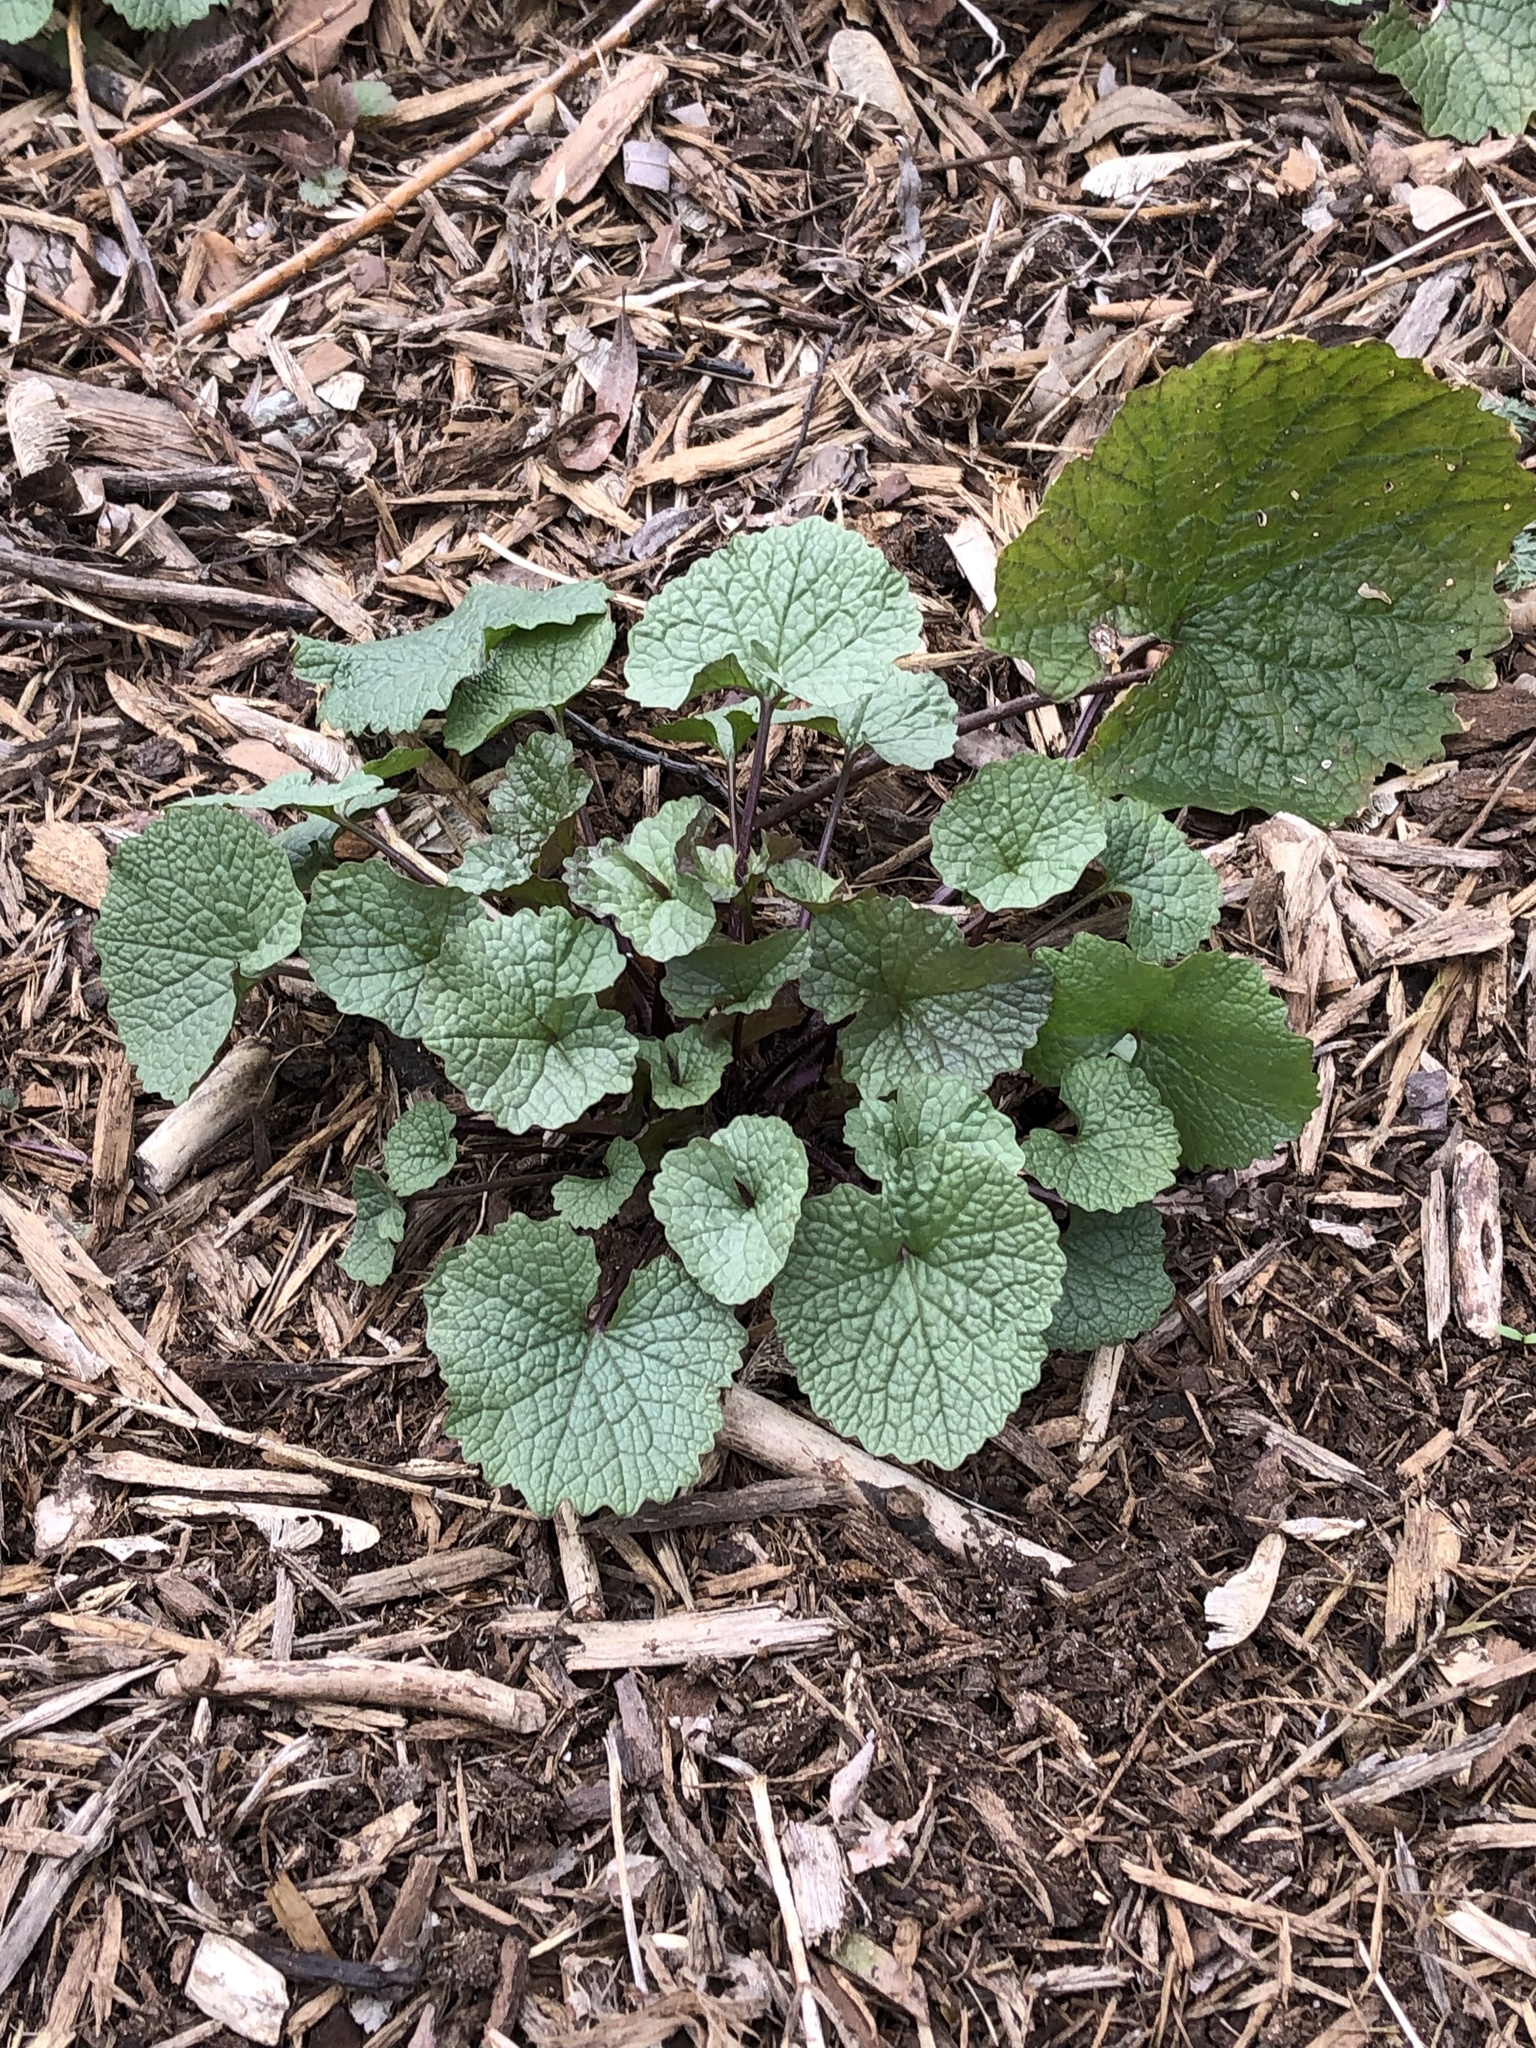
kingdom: Plantae
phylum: Tracheophyta
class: Magnoliopsida
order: Brassicales
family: Brassicaceae
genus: Alliaria
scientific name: Alliaria petiolata
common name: Garlic mustard
